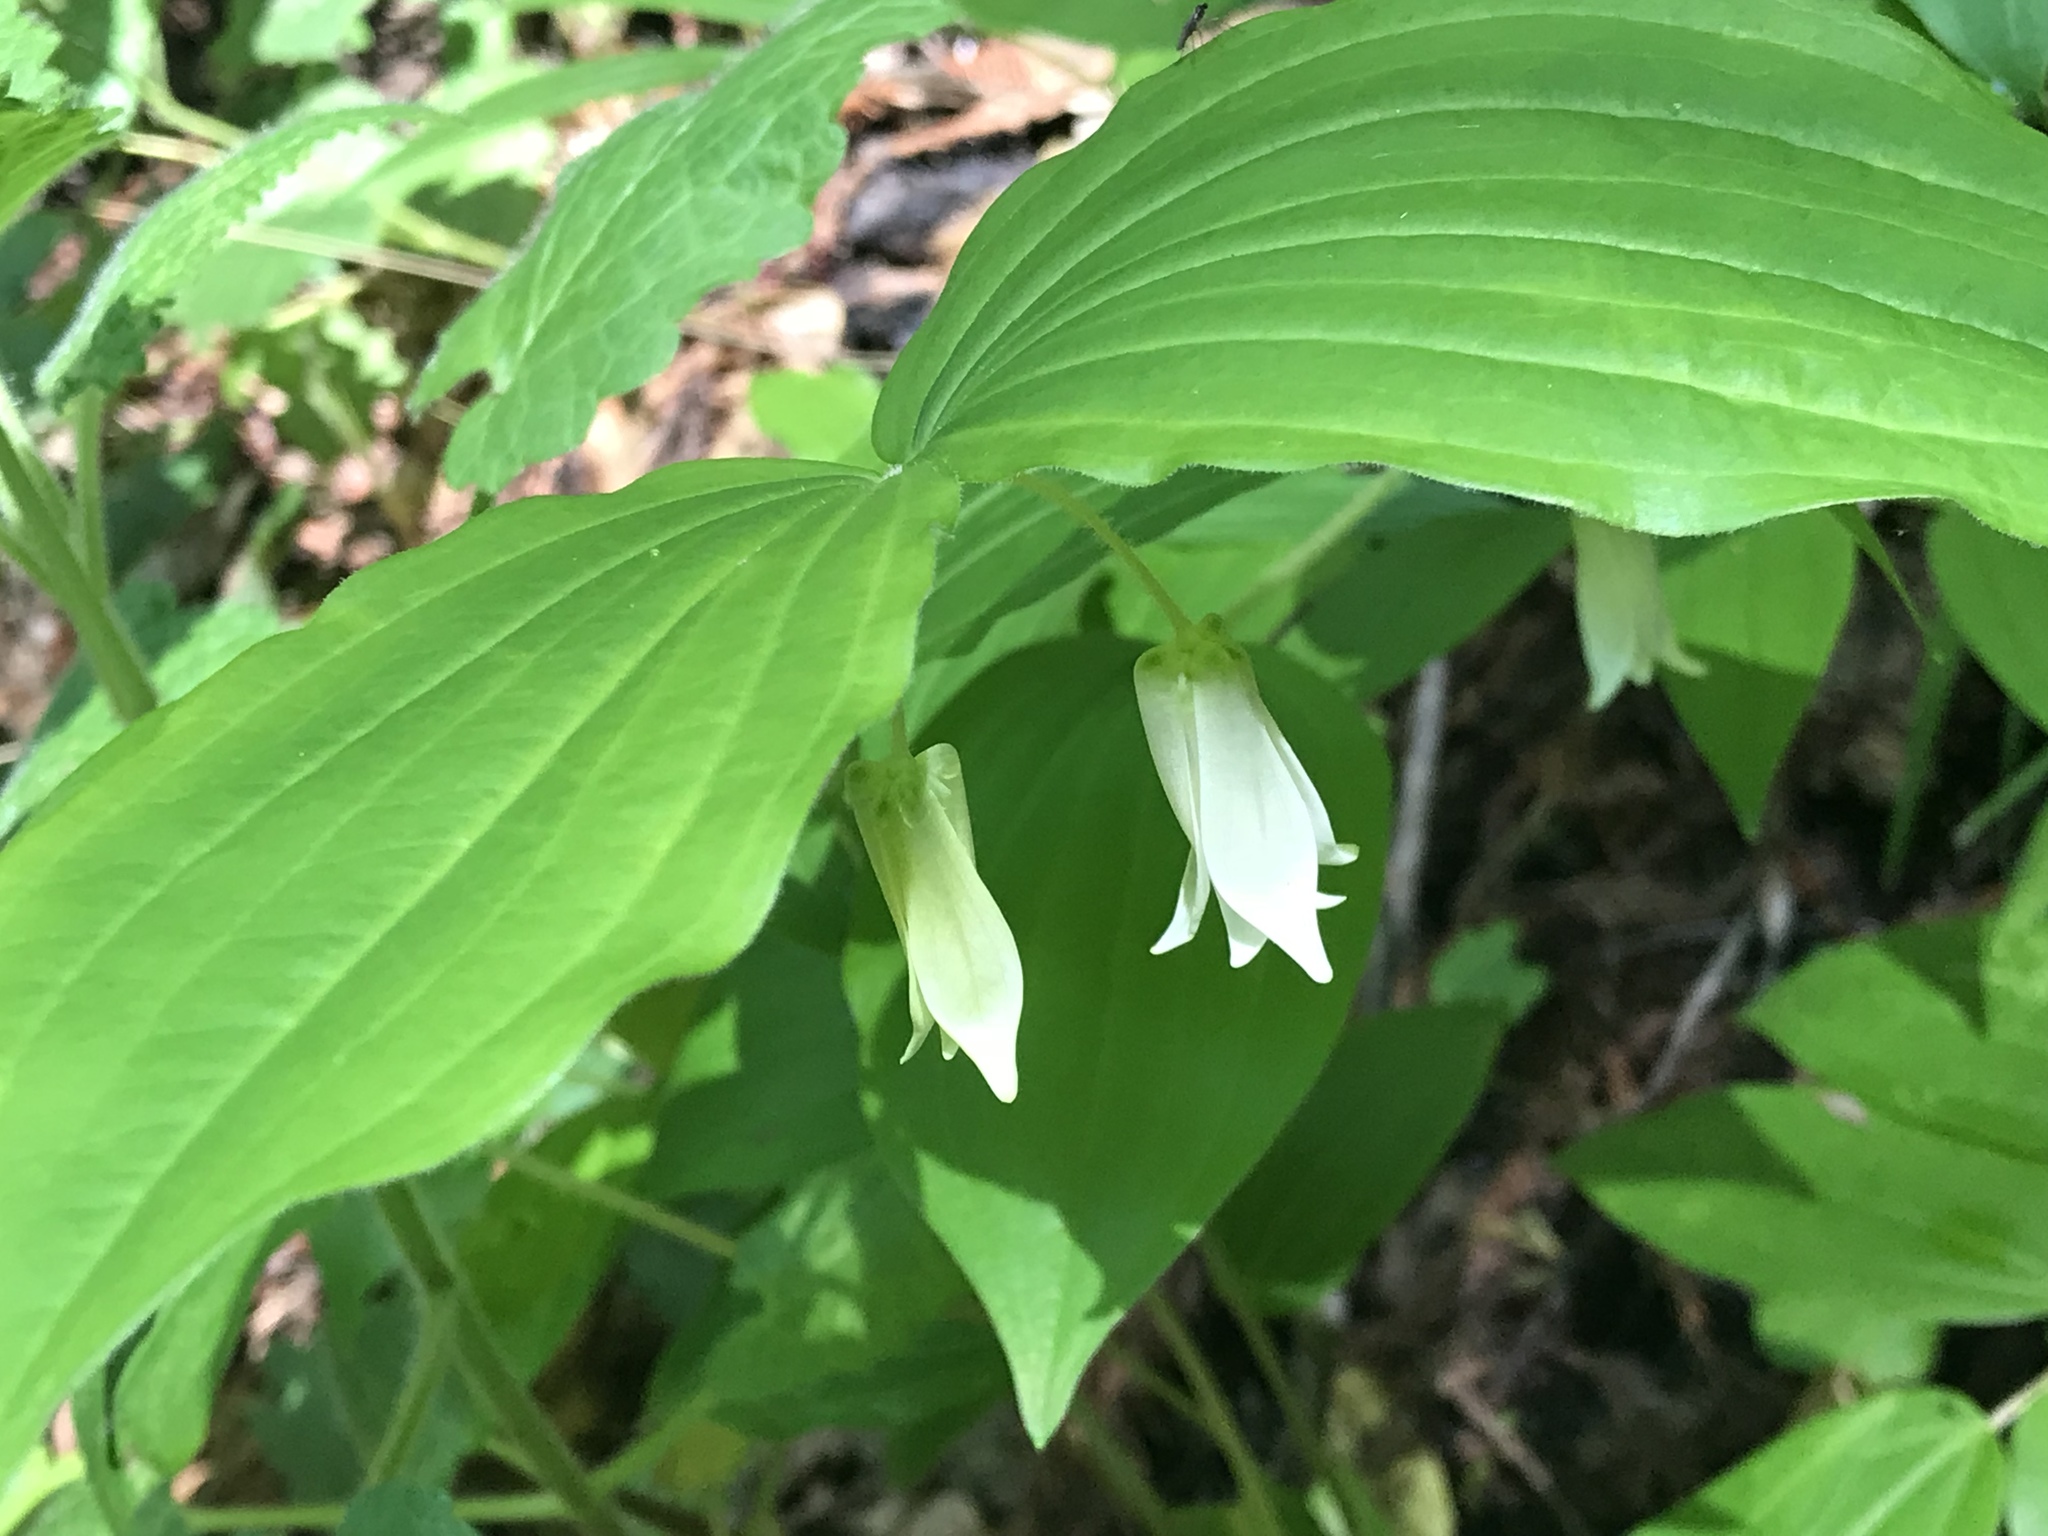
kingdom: Plantae
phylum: Tracheophyta
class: Liliopsida
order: Liliales
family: Liliaceae
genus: Prosartes
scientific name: Prosartes smithii
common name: Fairy-lantern
